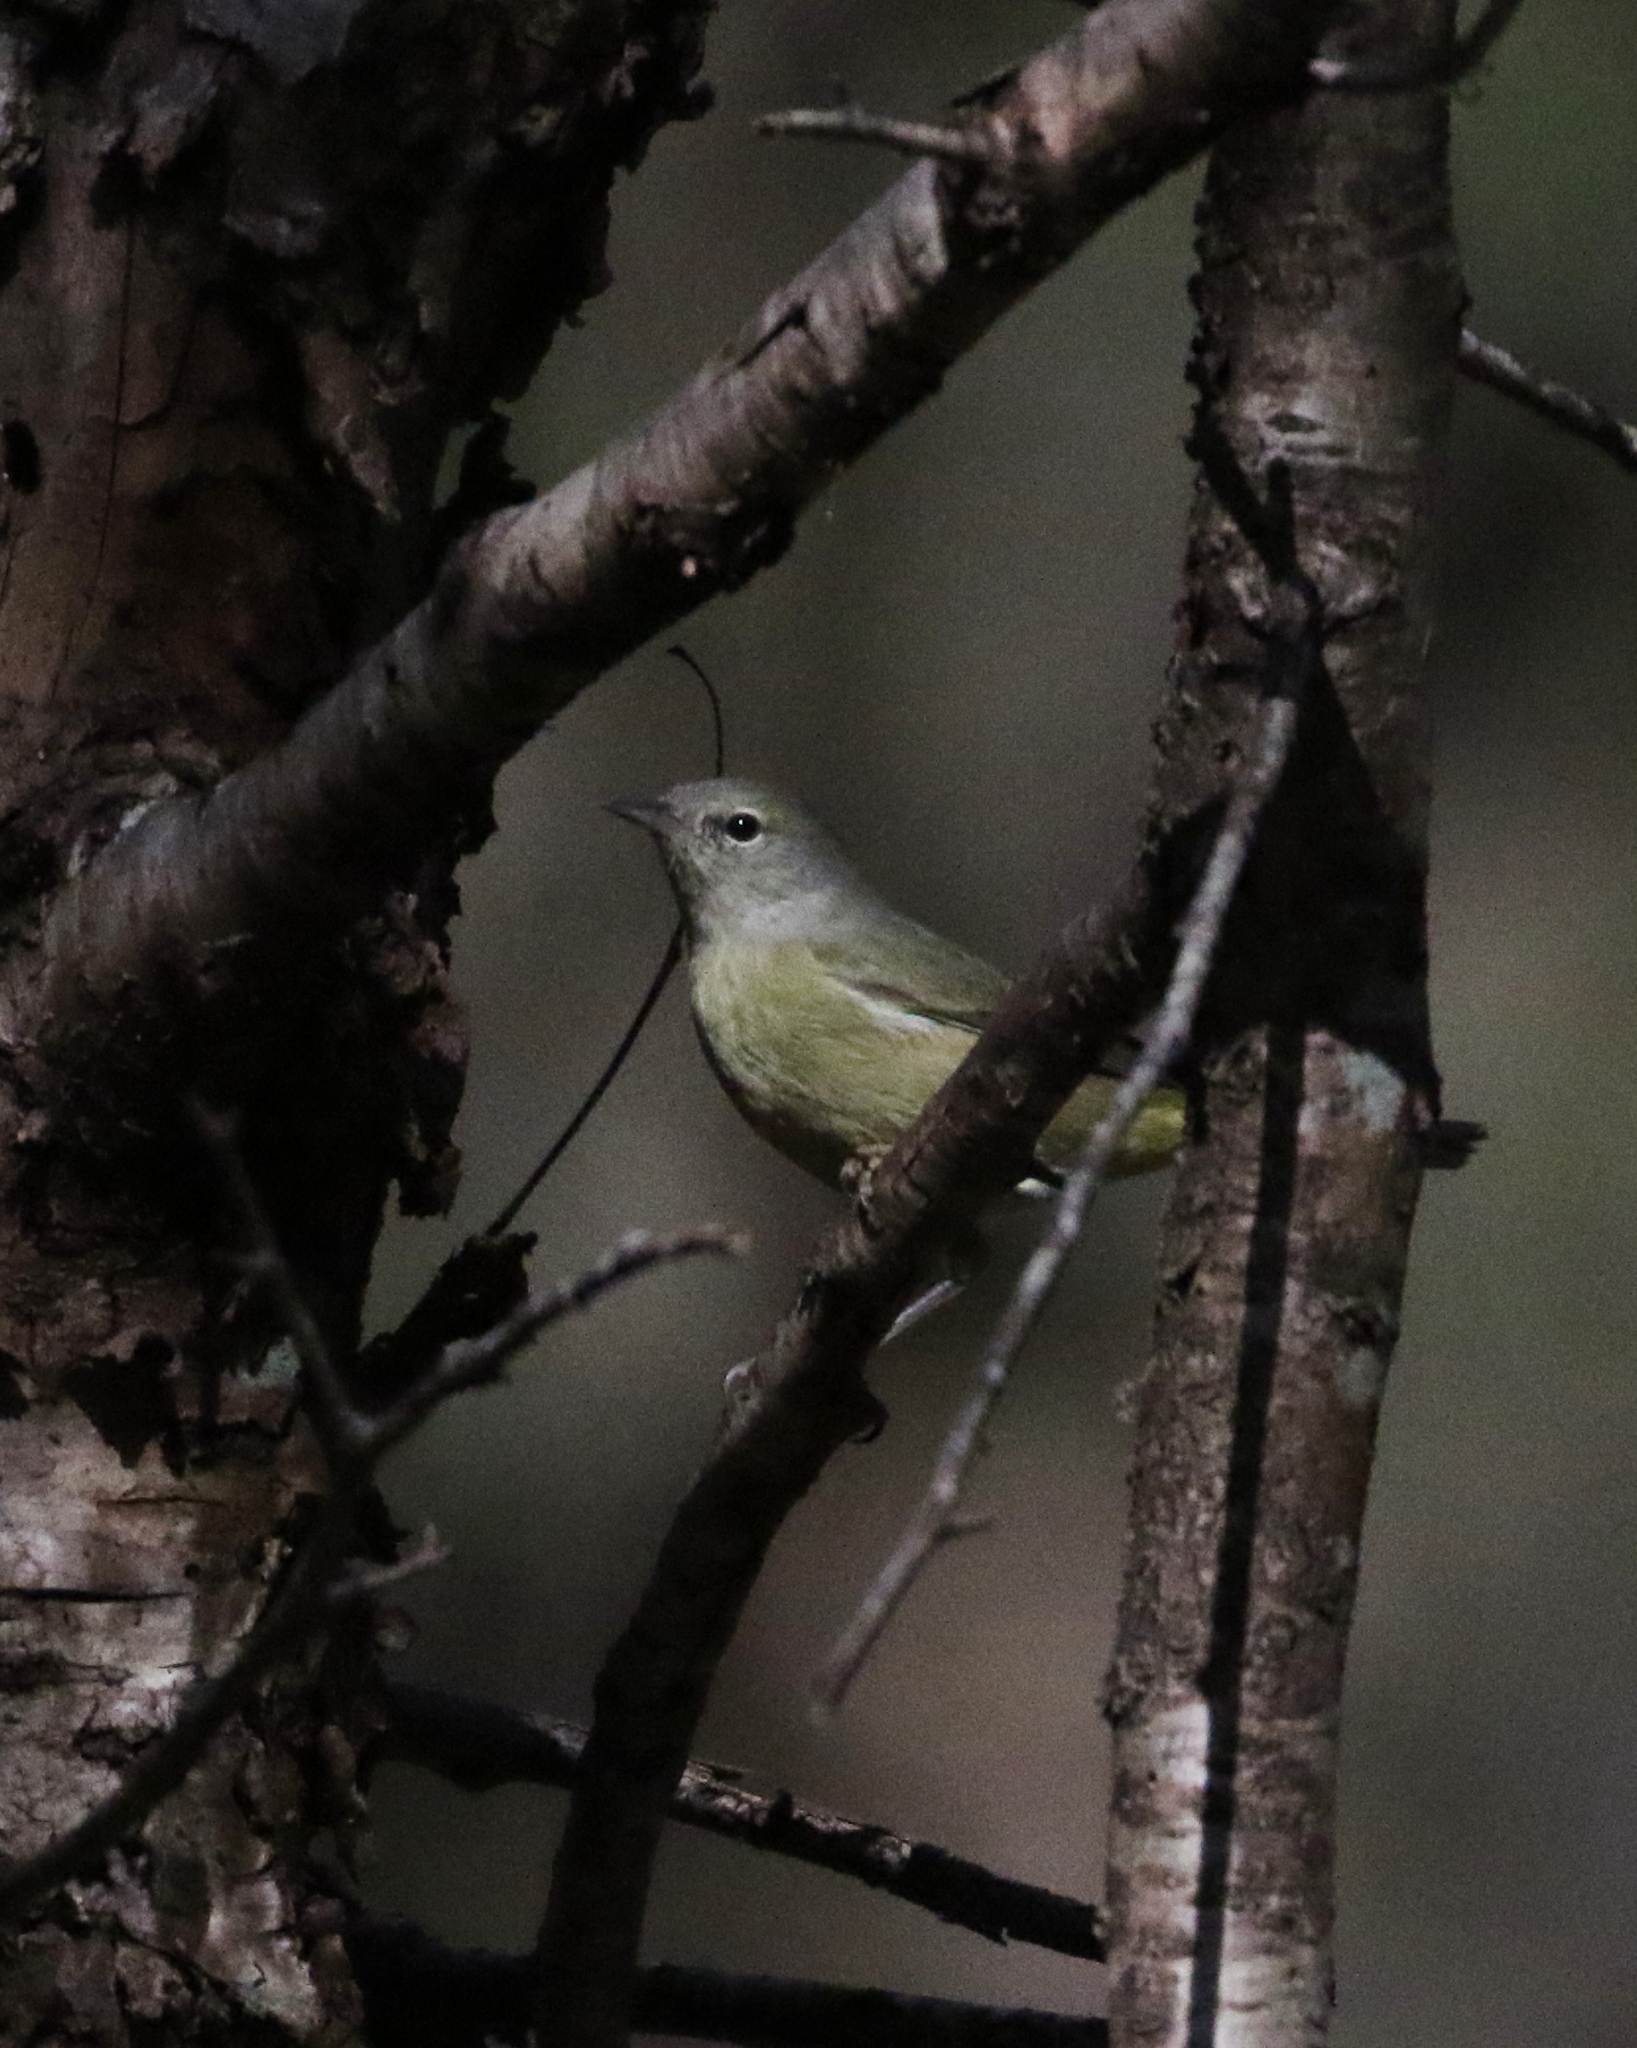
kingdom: Animalia
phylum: Chordata
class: Aves
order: Passeriformes
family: Parulidae
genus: Leiothlypis
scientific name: Leiothlypis celata
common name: Orange-crowned warbler
